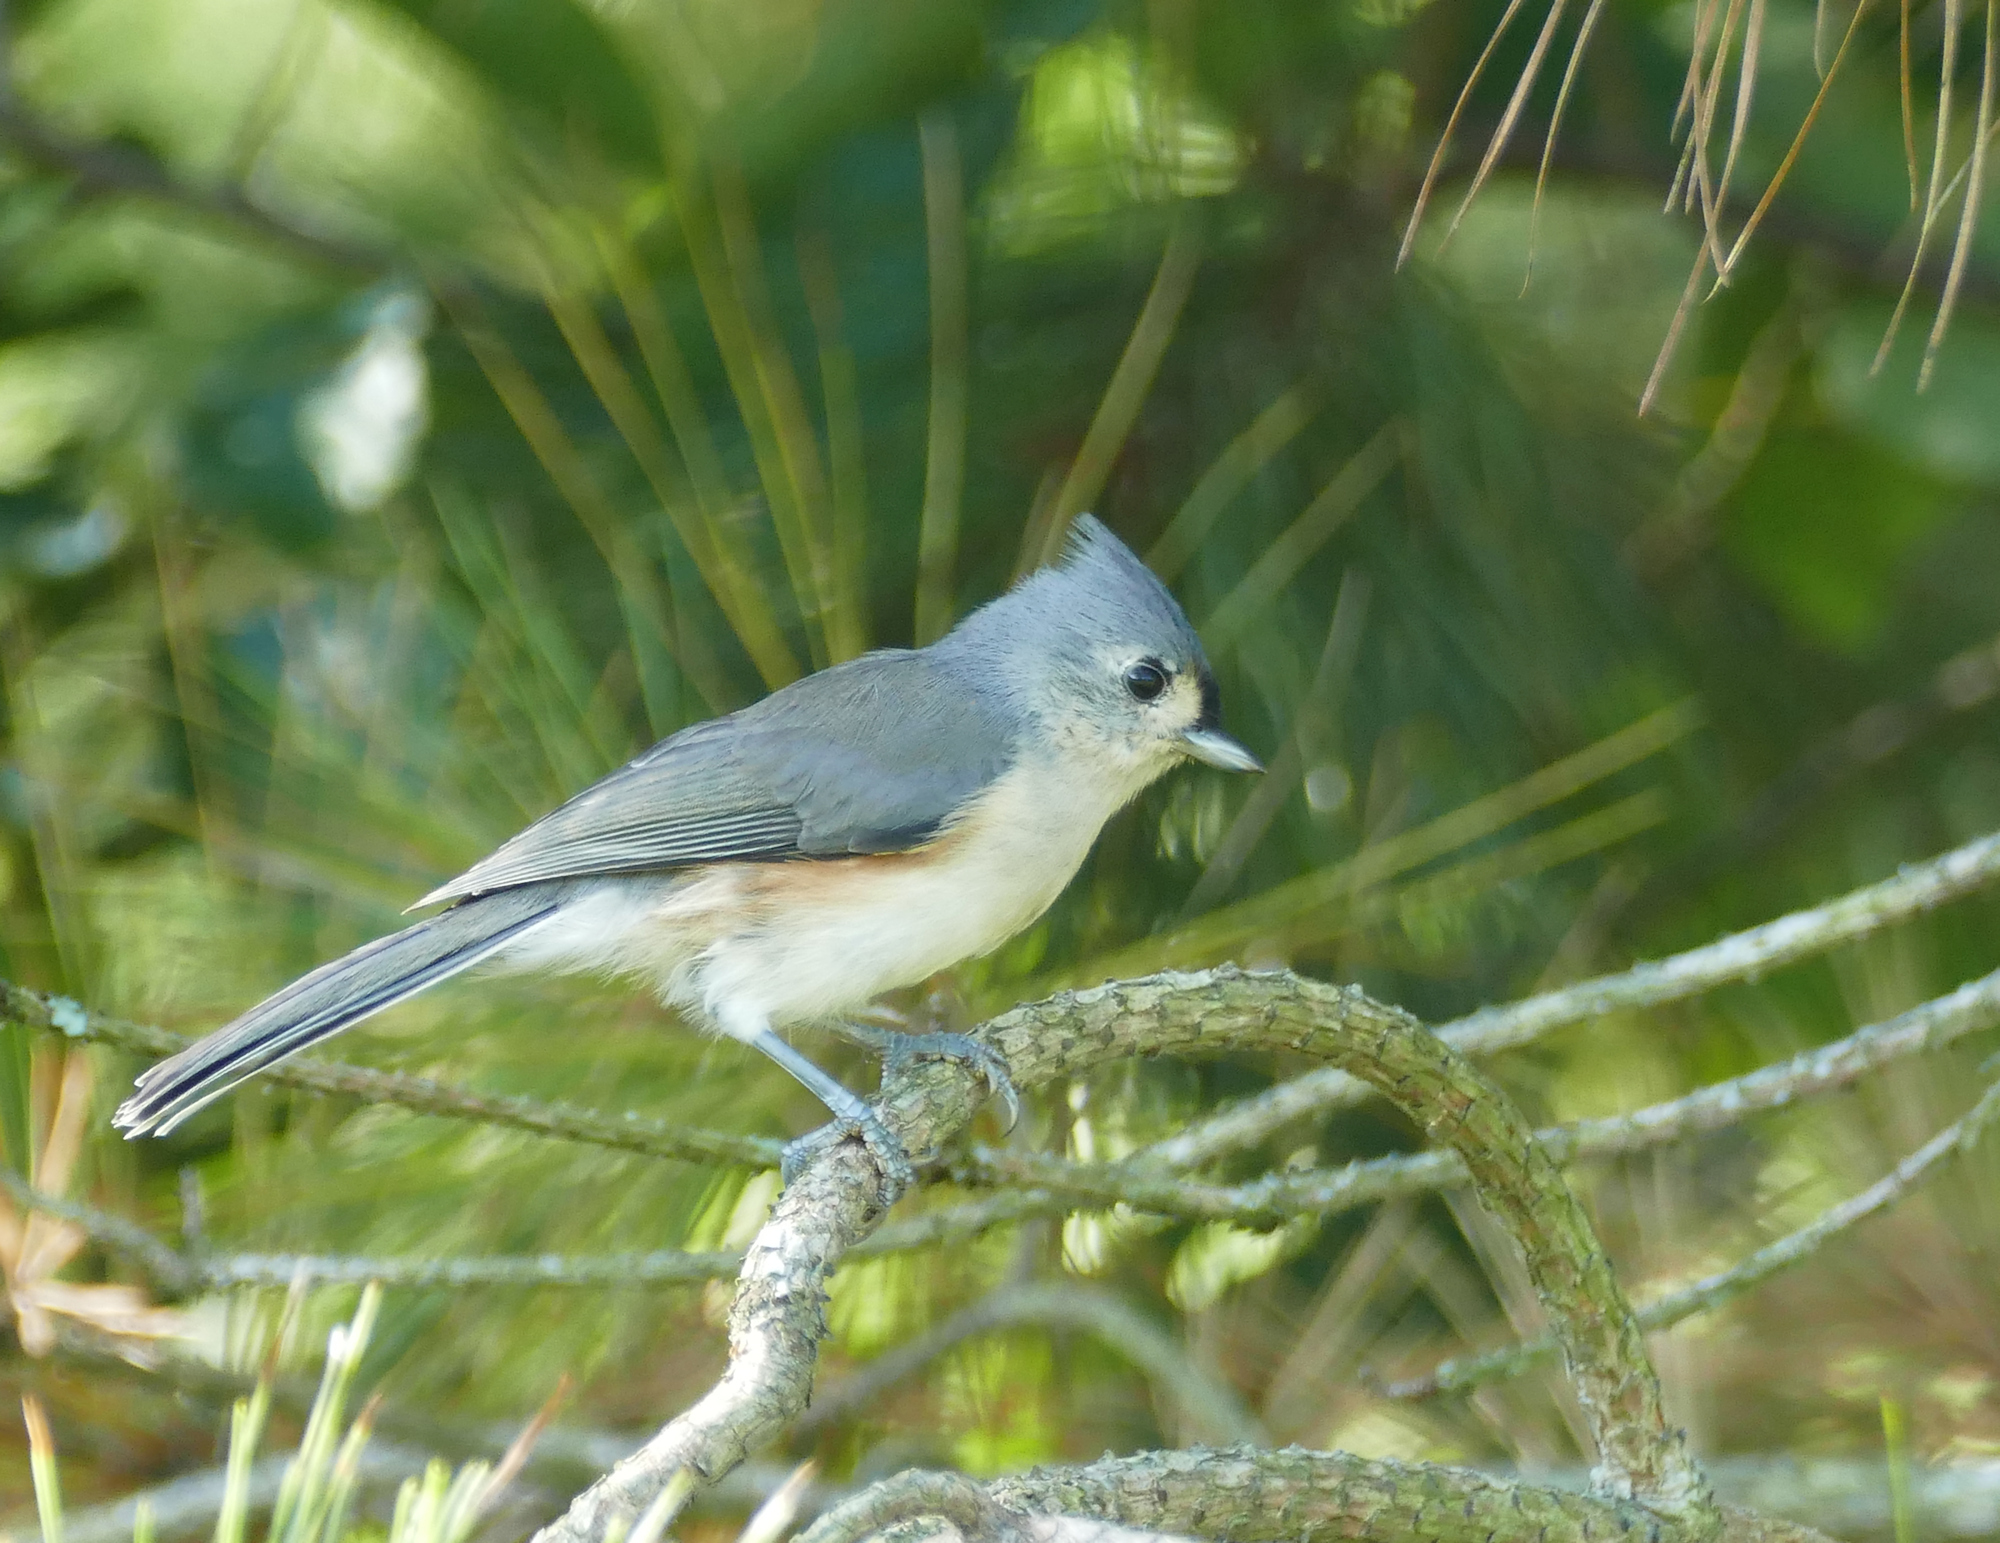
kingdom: Animalia
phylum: Chordata
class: Aves
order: Passeriformes
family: Paridae
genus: Baeolophus
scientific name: Baeolophus bicolor
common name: Tufted titmouse
